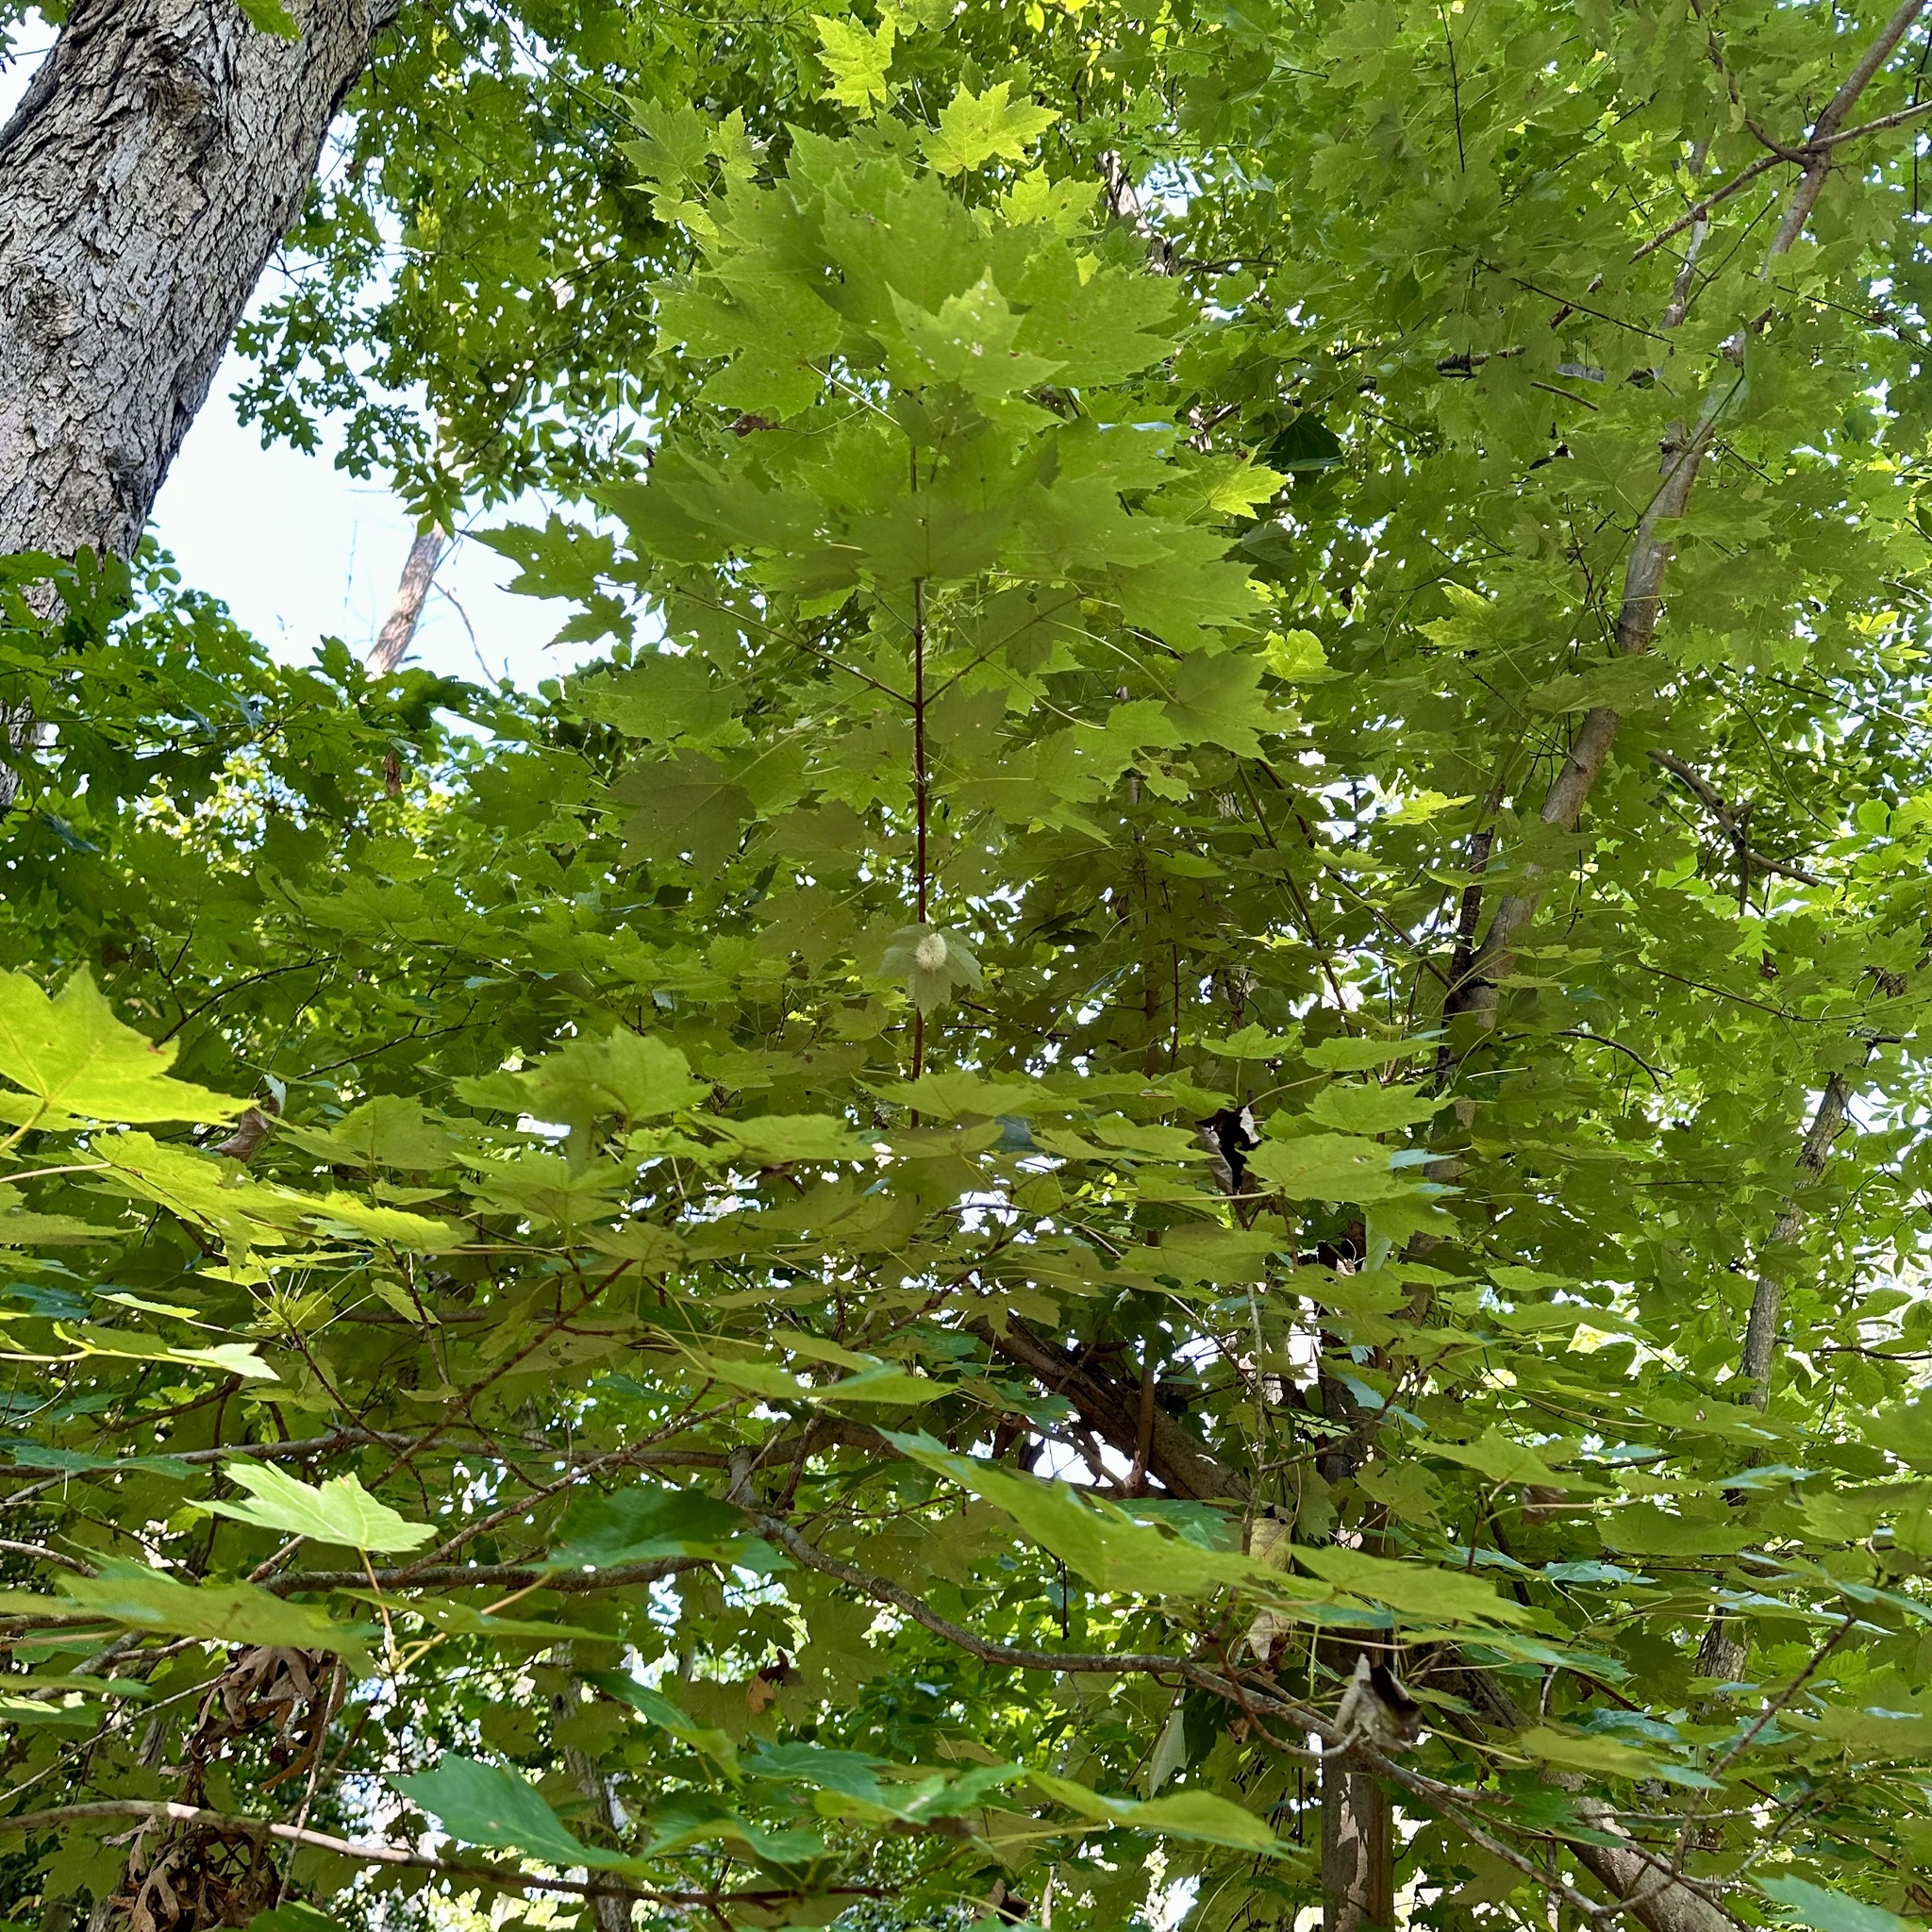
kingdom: Animalia
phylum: Arthropoda
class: Insecta
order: Lepidoptera
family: Noctuidae
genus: Acronicta
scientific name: Acronicta americana
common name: American dagger
